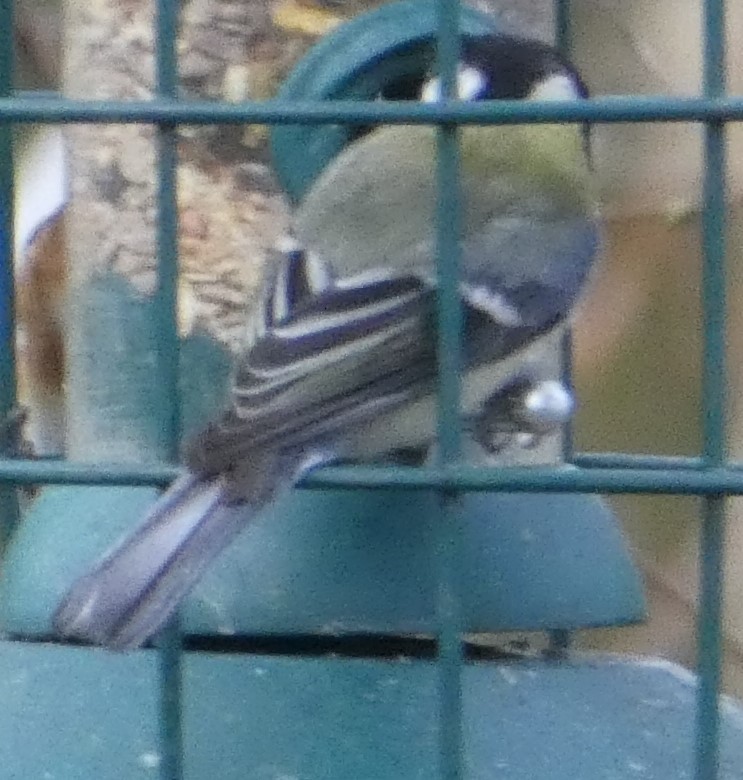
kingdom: Animalia
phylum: Chordata
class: Aves
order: Passeriformes
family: Paridae
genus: Parus
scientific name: Parus major
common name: Great tit
